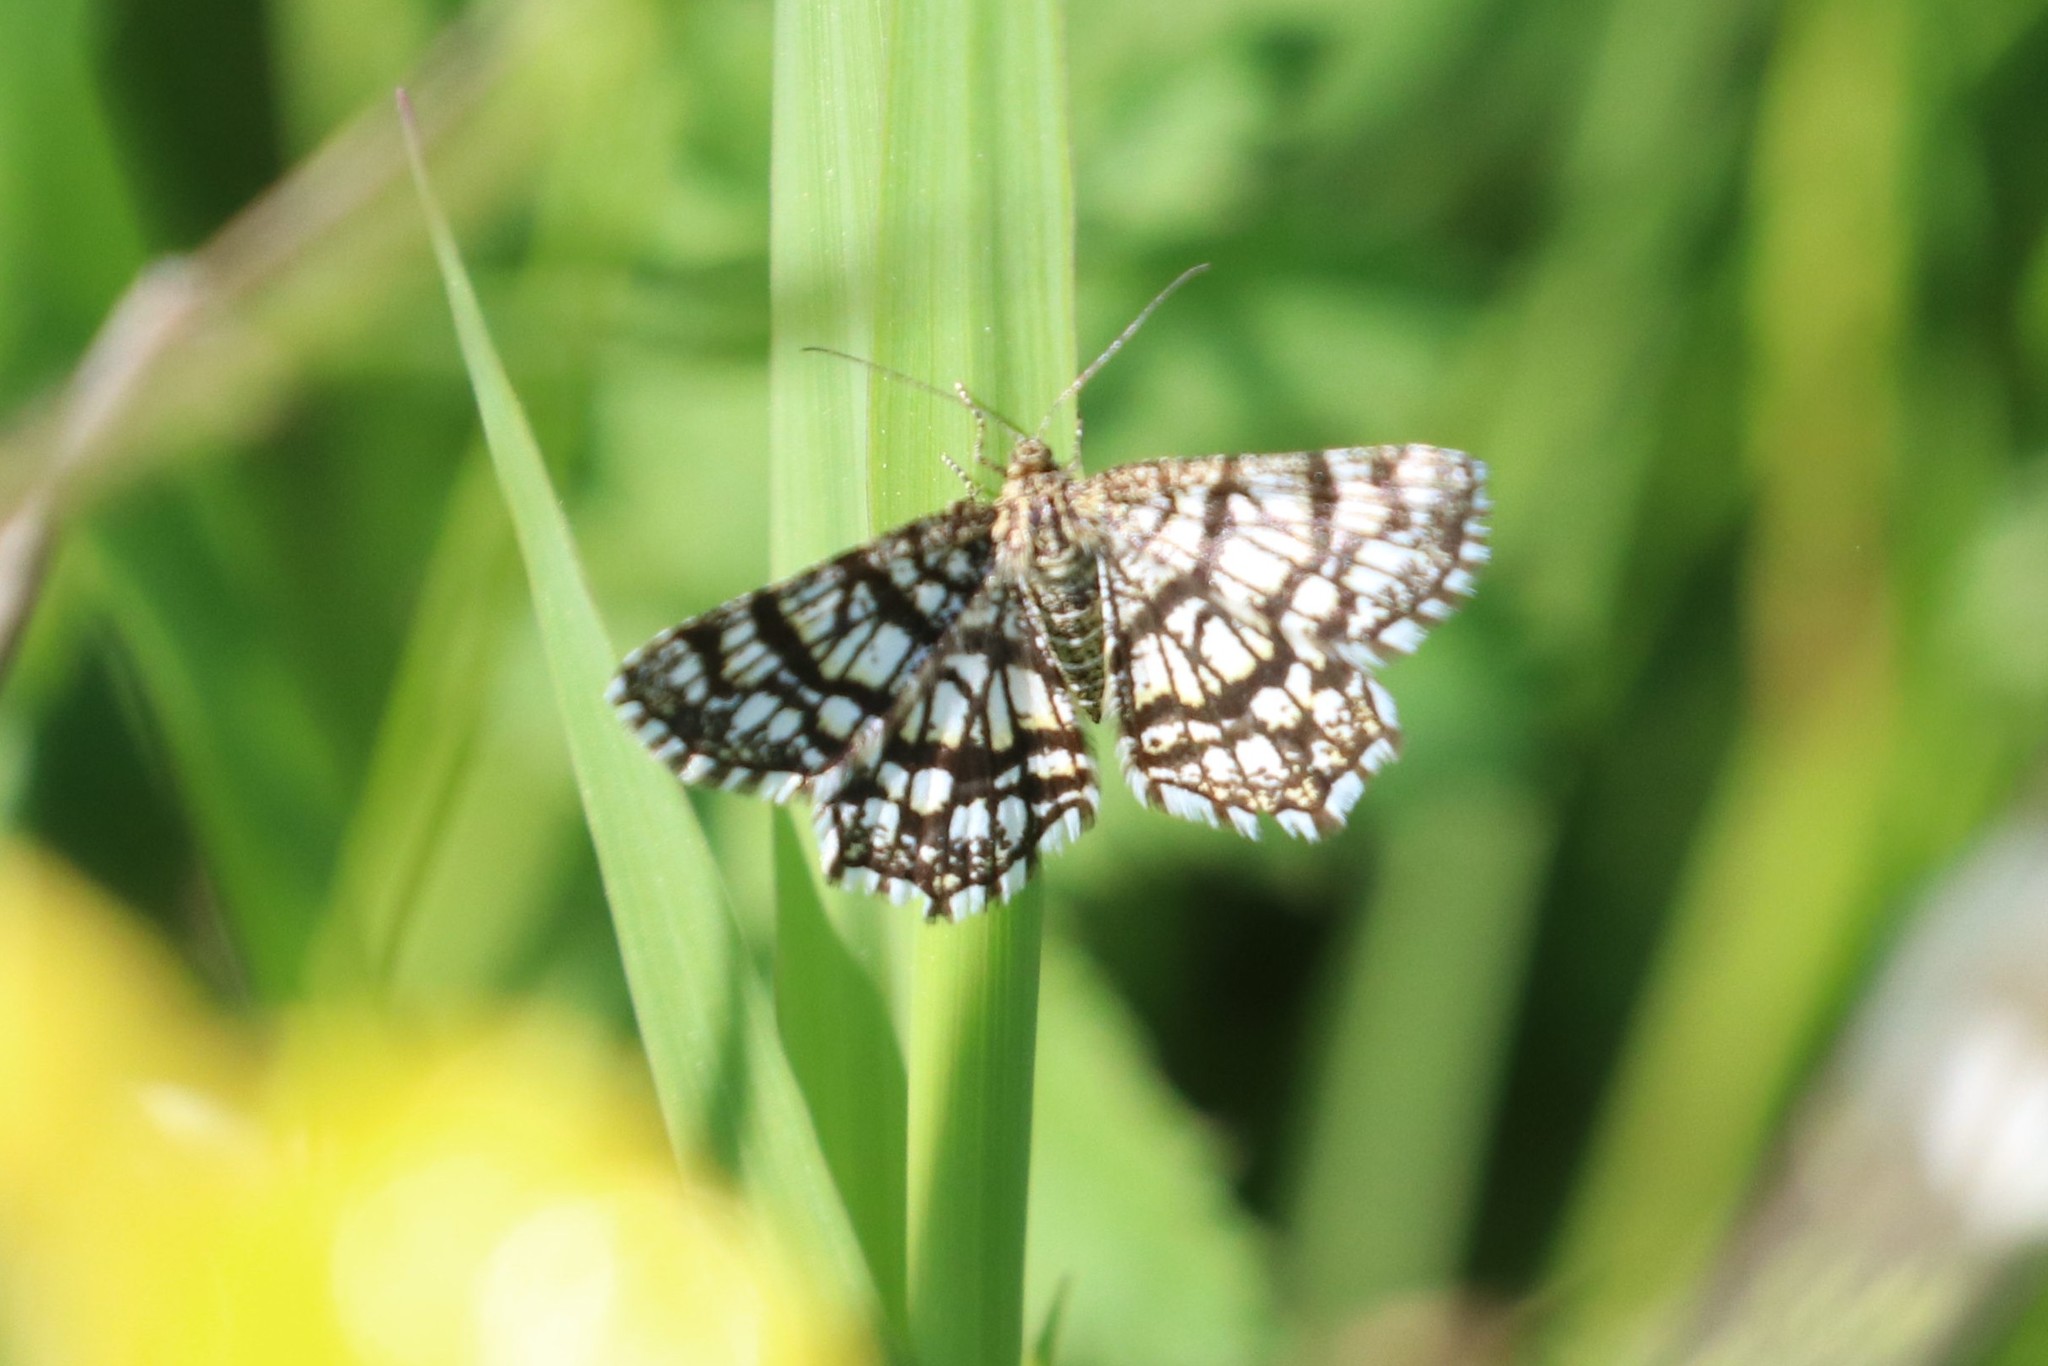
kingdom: Animalia
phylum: Arthropoda
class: Insecta
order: Lepidoptera
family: Geometridae
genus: Chiasmia
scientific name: Chiasmia clathrata
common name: Latticed heath
